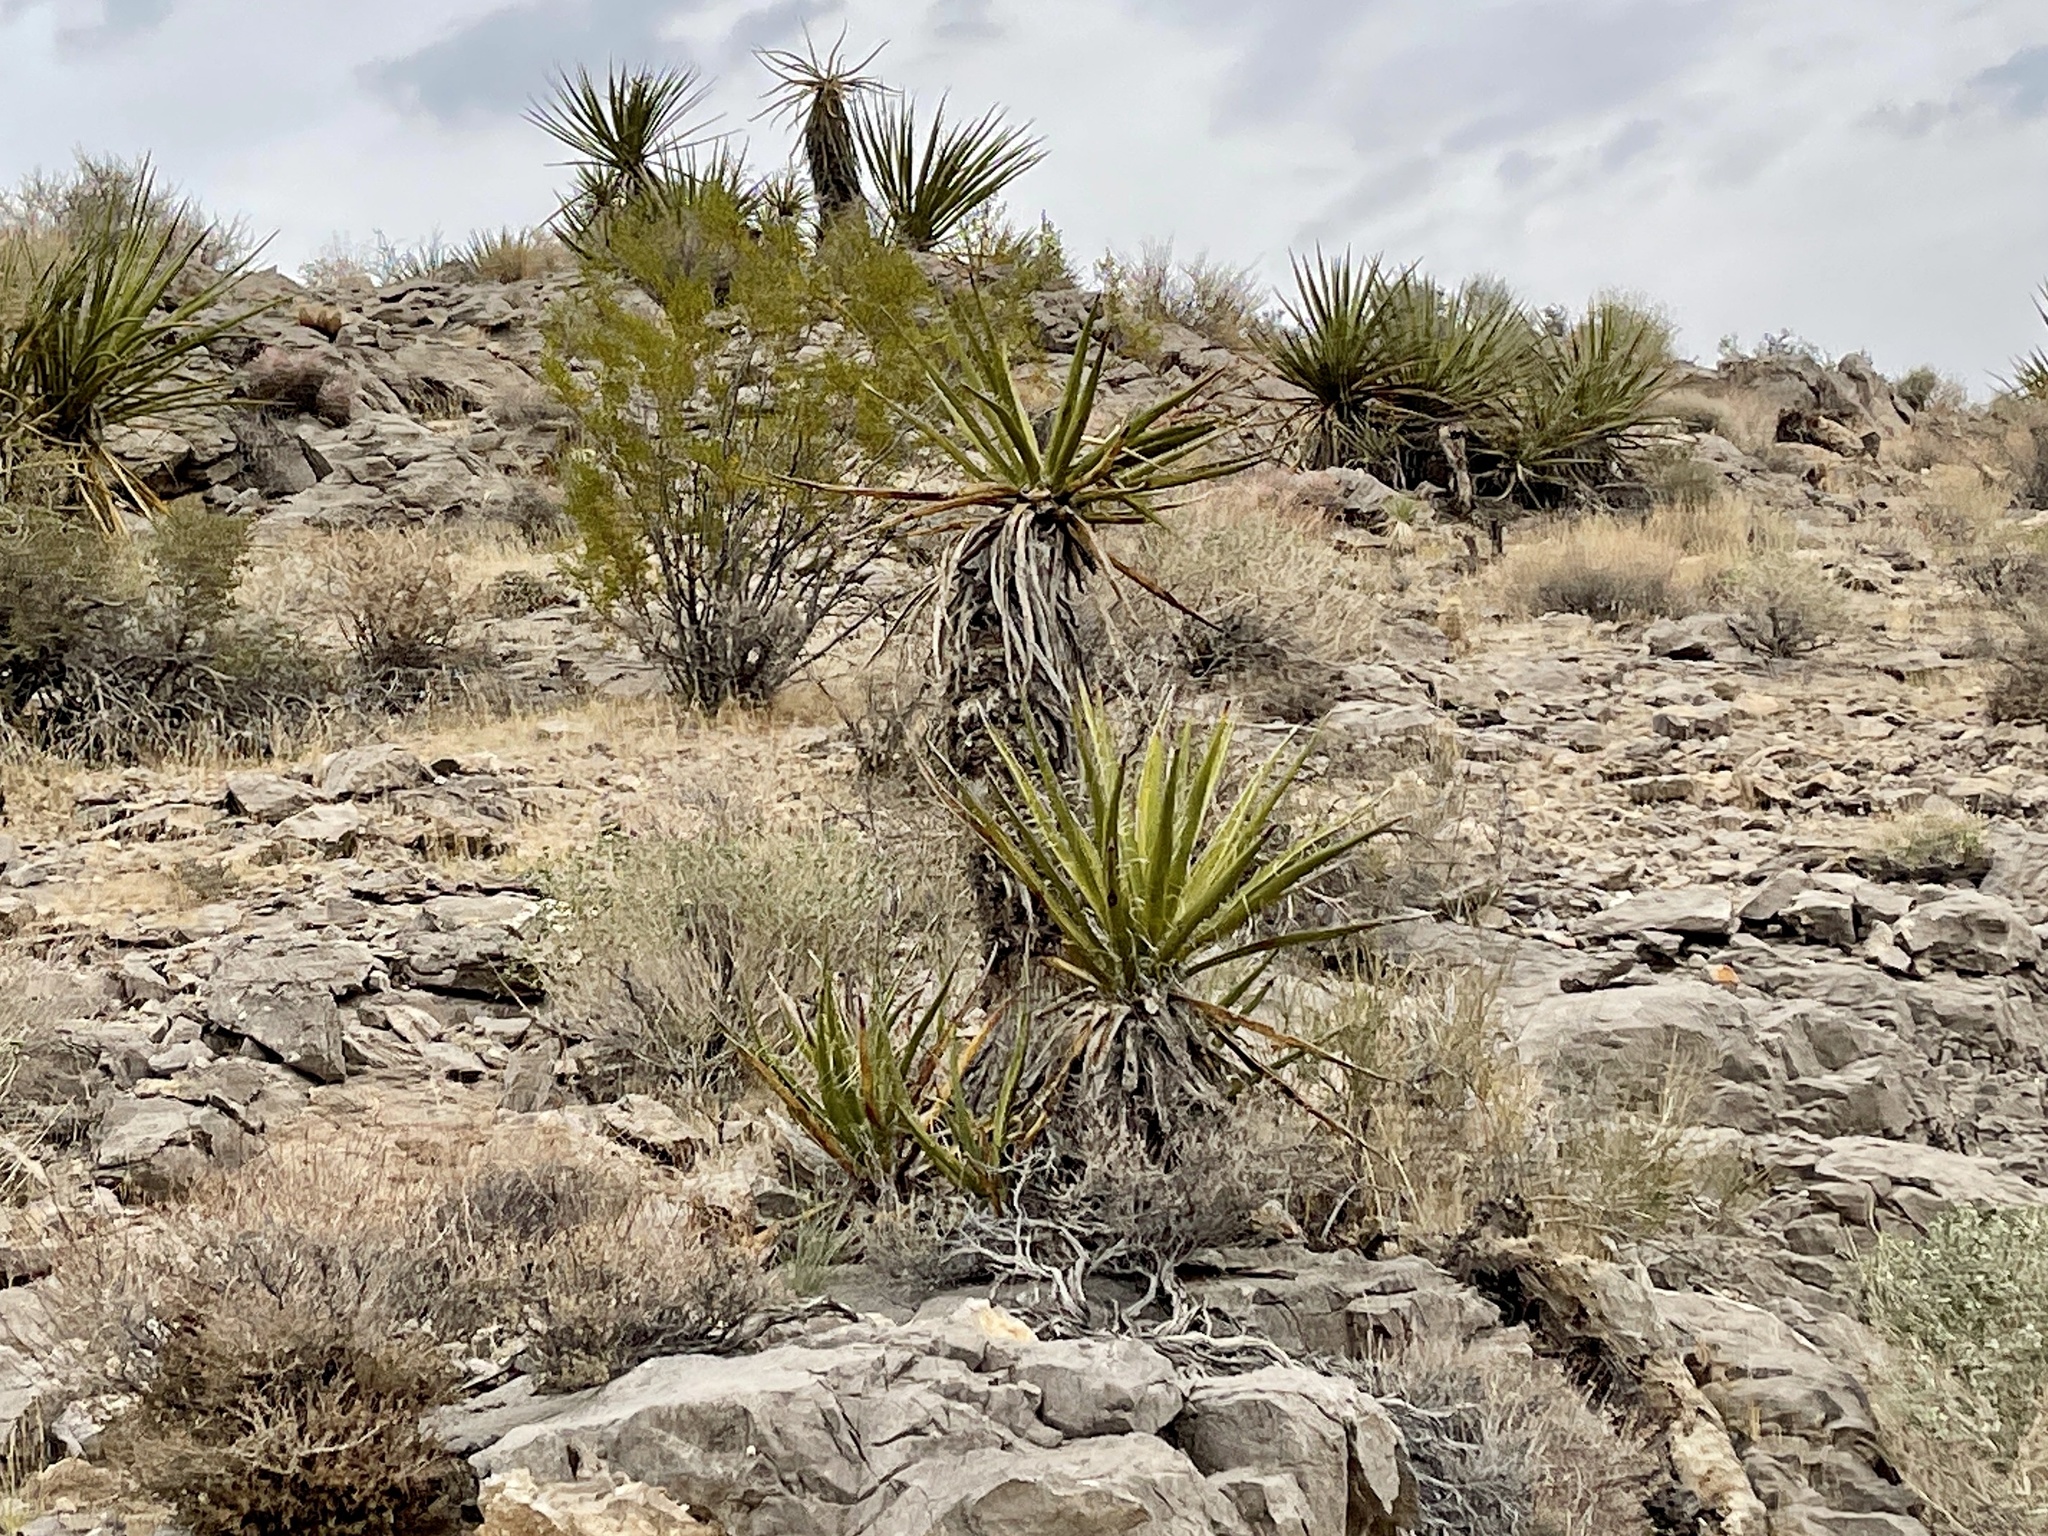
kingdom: Plantae
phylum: Tracheophyta
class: Liliopsida
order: Asparagales
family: Asparagaceae
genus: Yucca
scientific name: Yucca schidigera
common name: Mojave yucca
